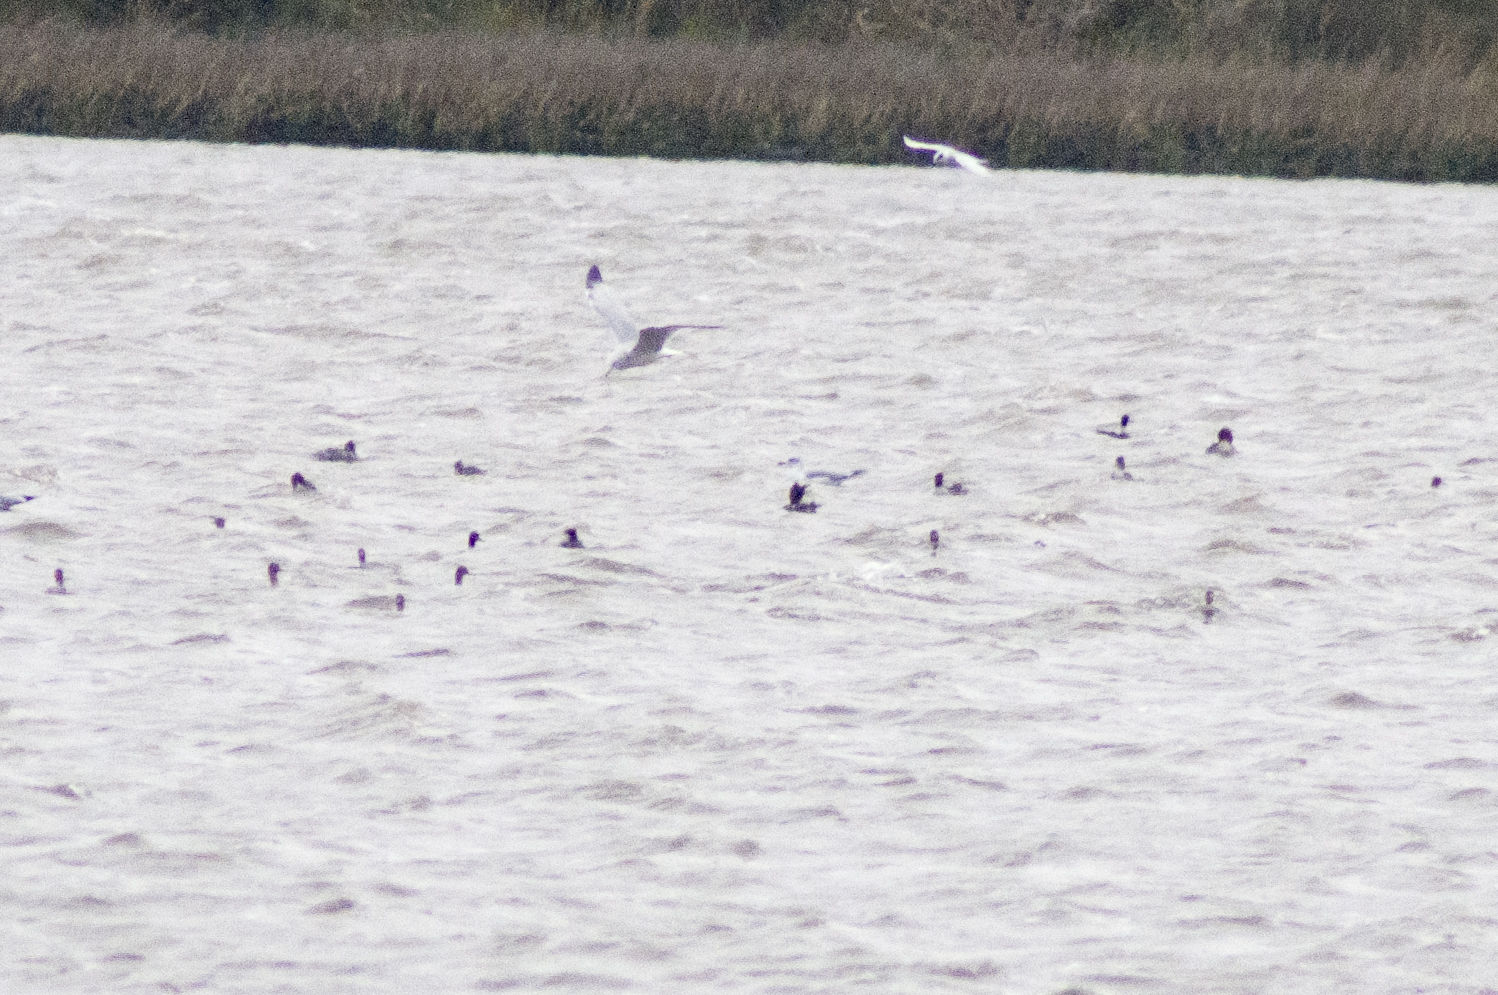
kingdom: Animalia
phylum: Chordata
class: Aves
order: Charadriiformes
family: Laridae
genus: Sterna
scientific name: Sterna forsteri
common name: Forster's tern
